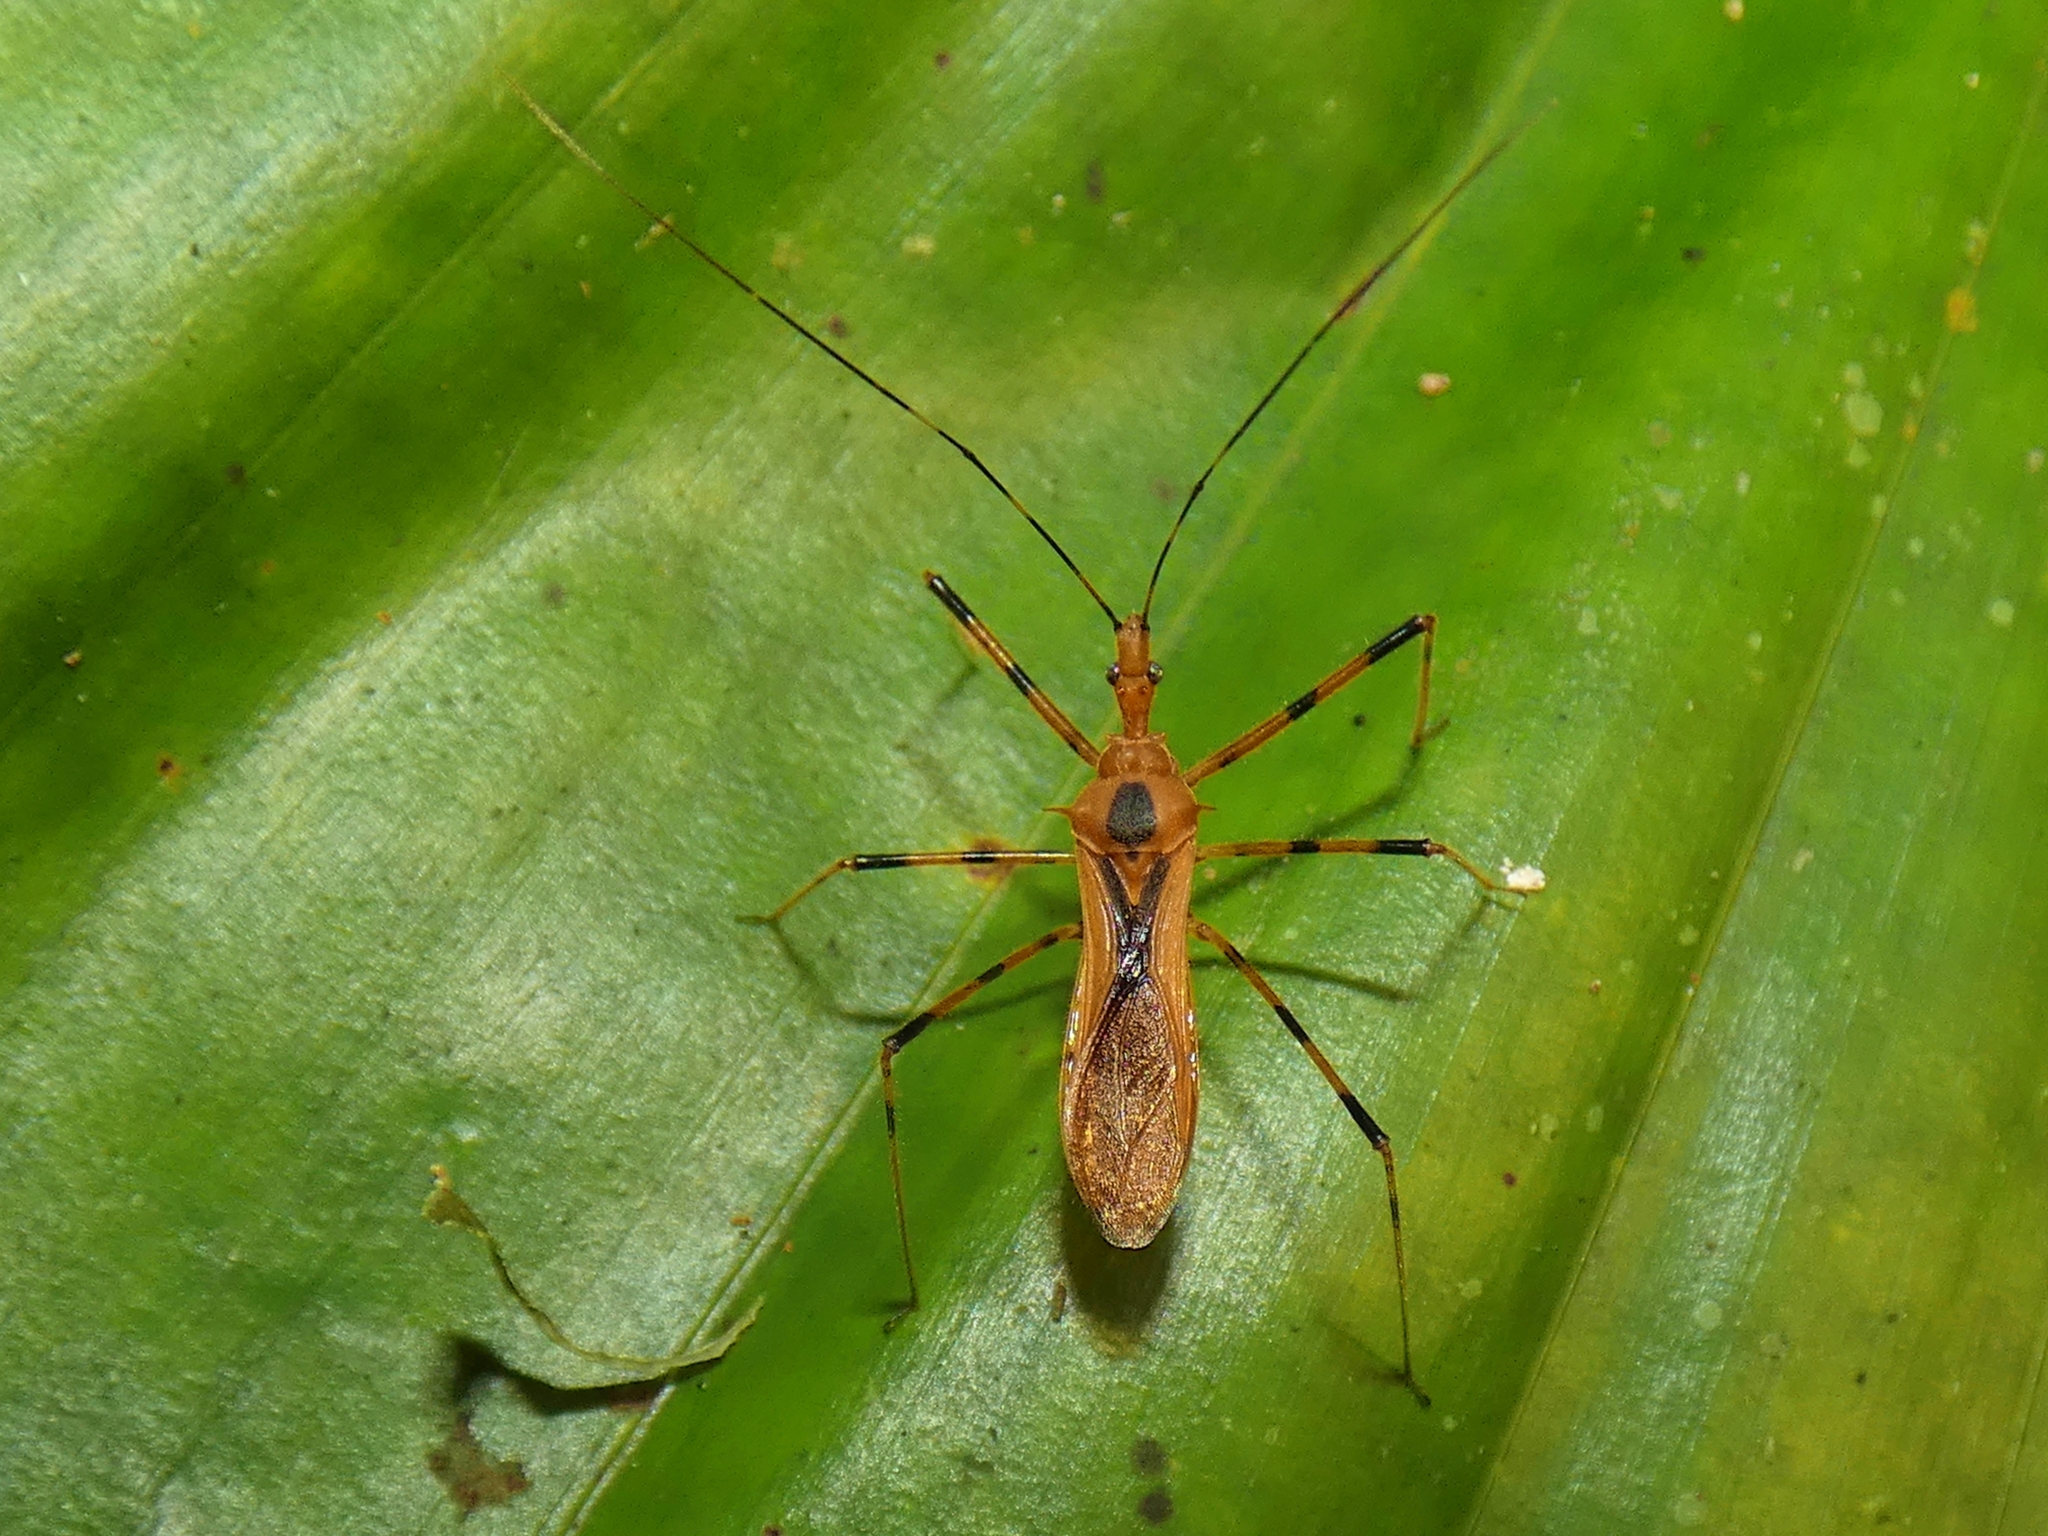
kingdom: Animalia
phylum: Arthropoda
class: Insecta
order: Hemiptera
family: Reduviidae
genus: Euagoras
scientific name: Euagoras dorycus
